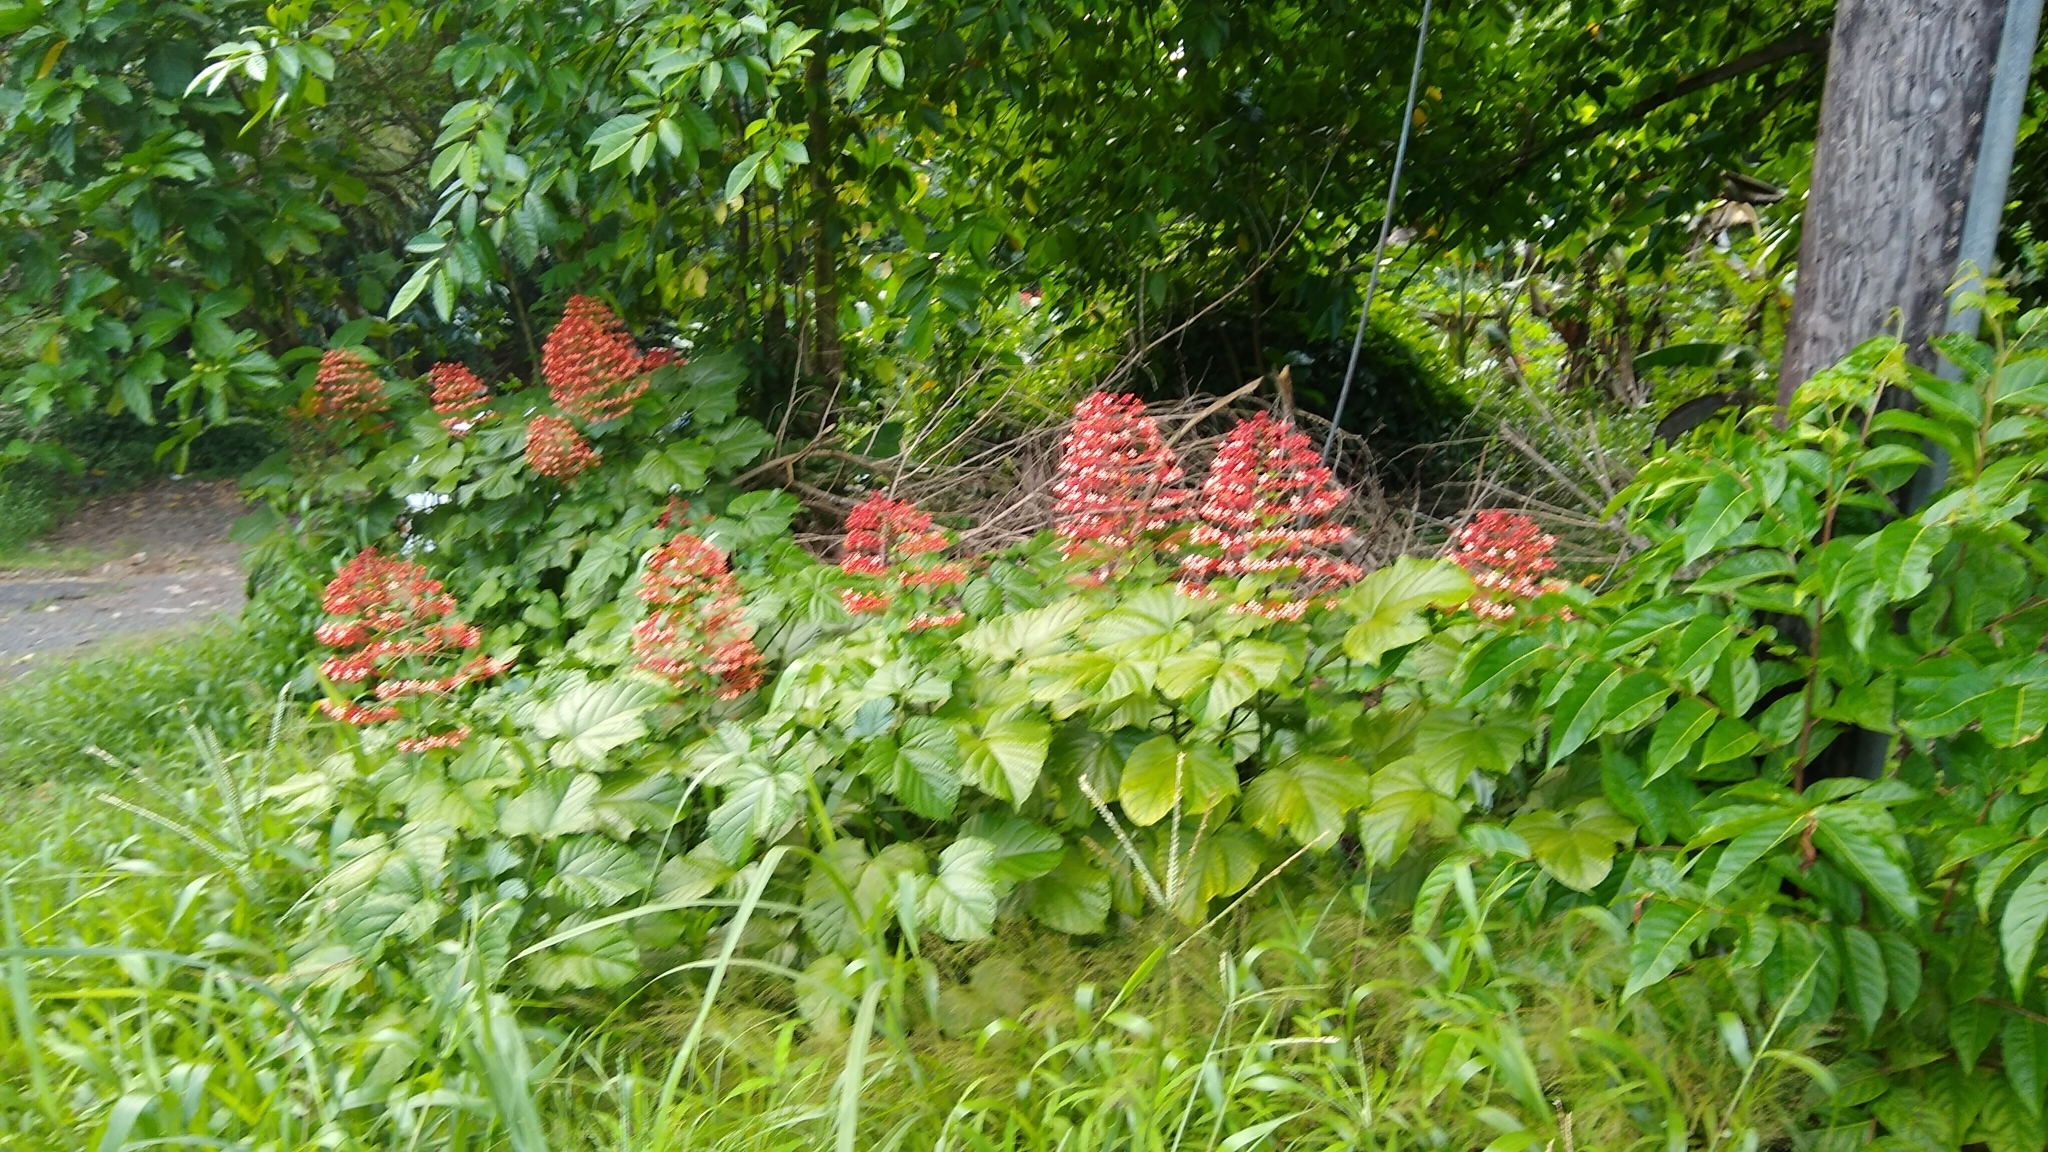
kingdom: Plantae
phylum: Tracheophyta
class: Magnoliopsida
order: Lamiales
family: Lamiaceae
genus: Clerodendrum
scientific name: Clerodendrum paniculatum
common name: Pagoda-flower
